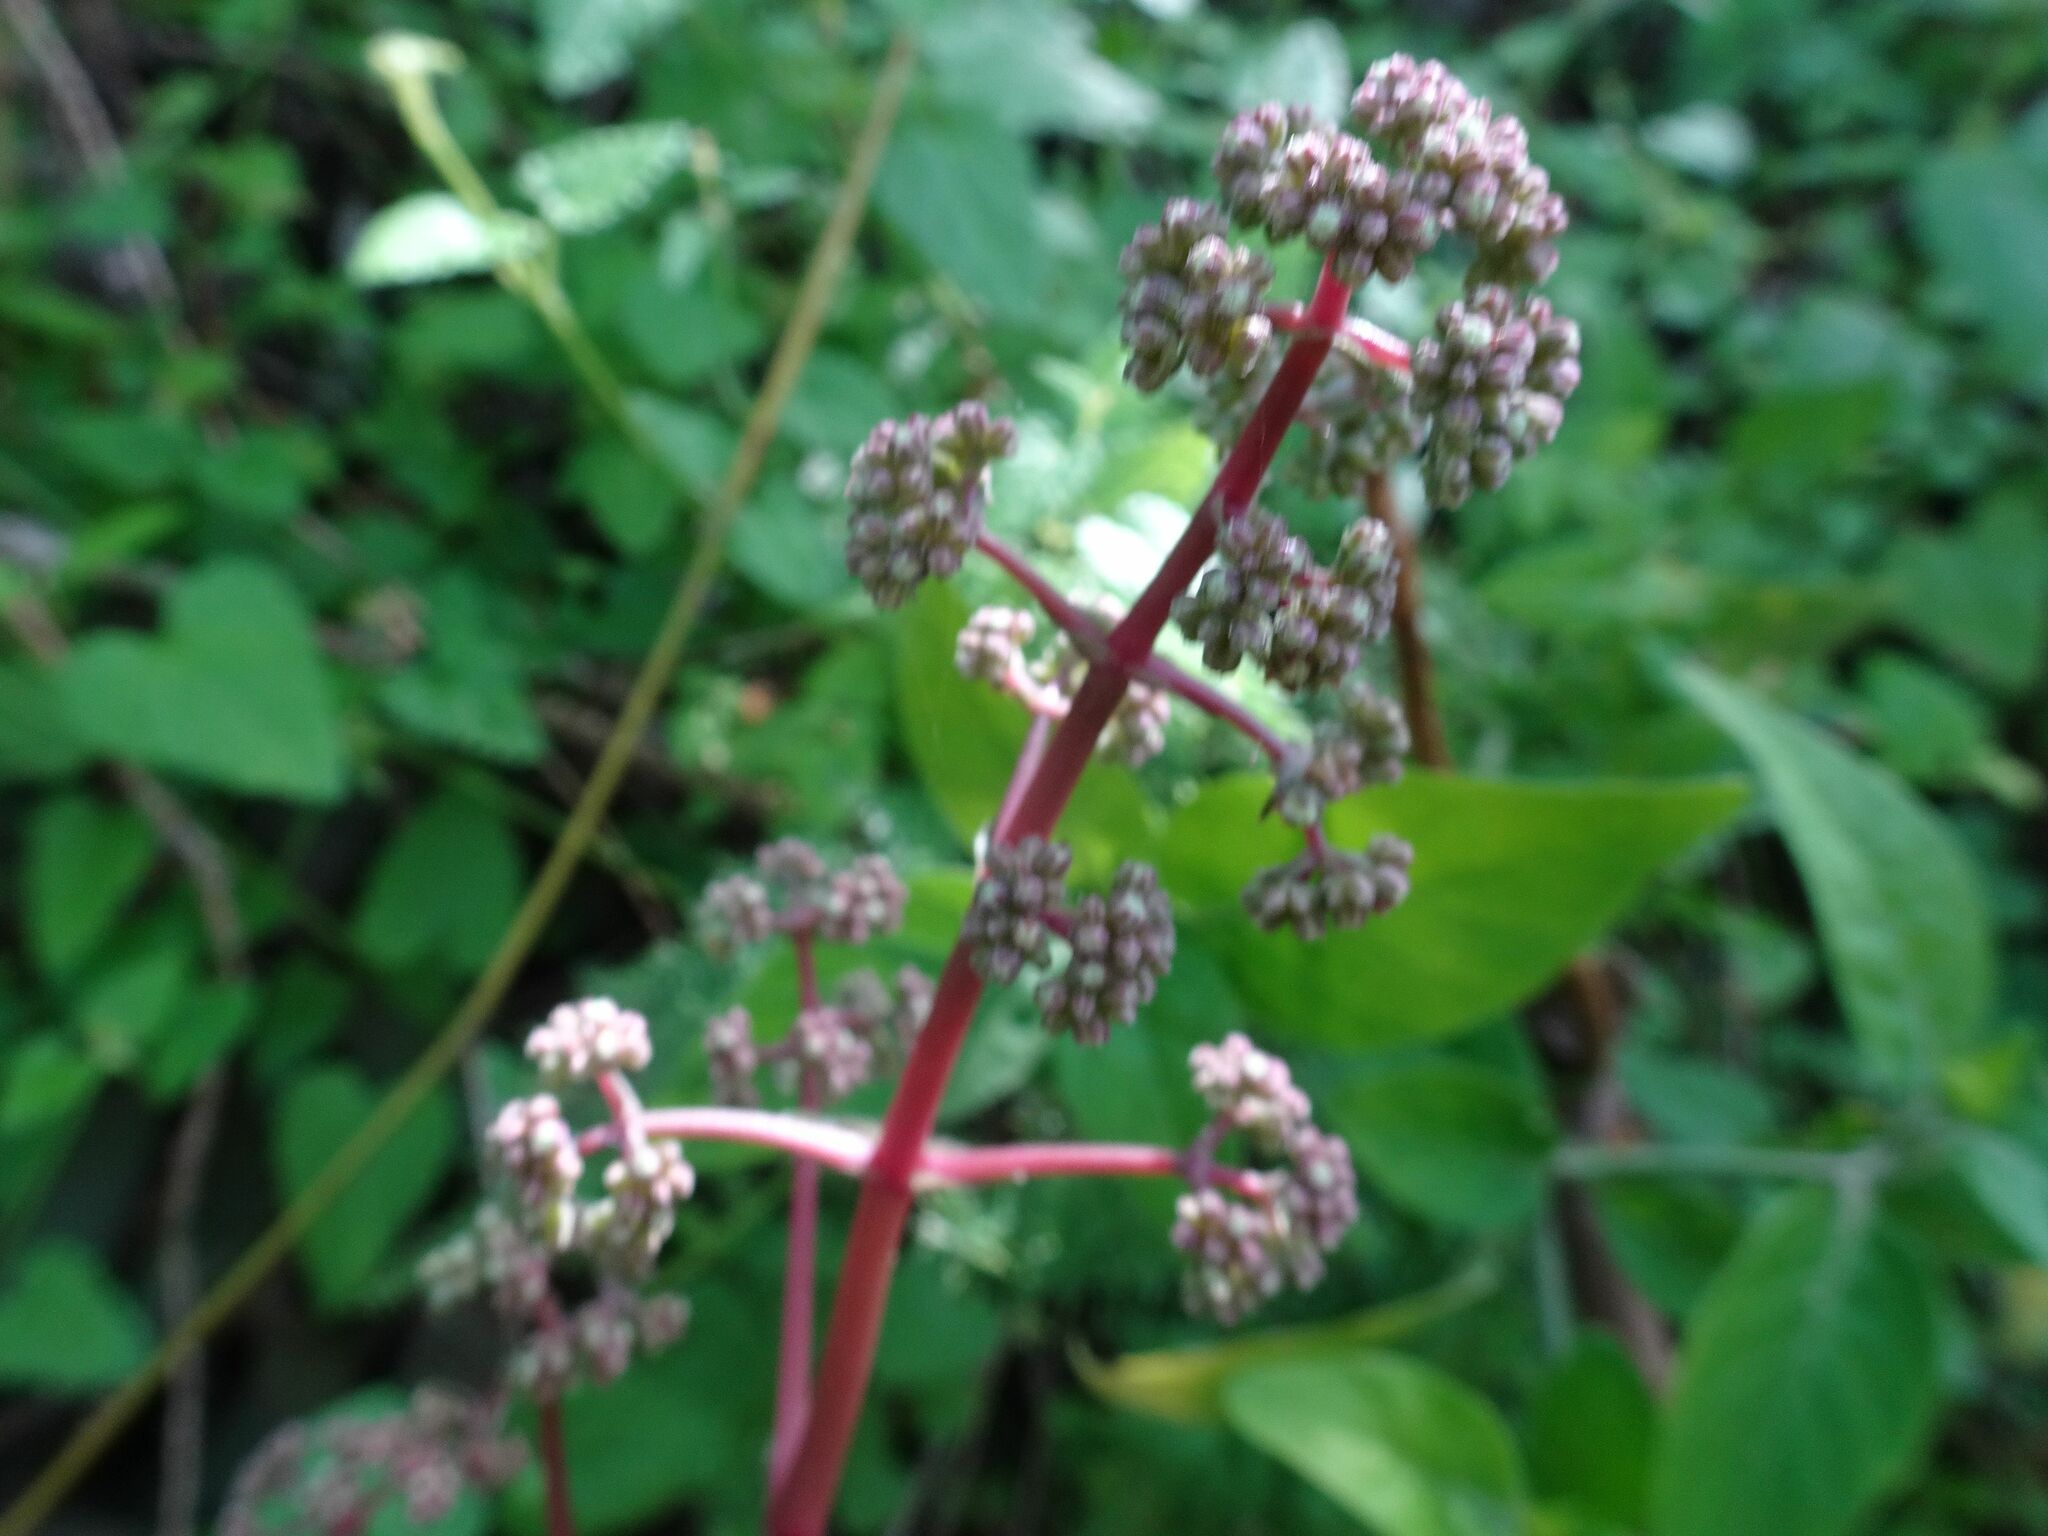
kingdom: Plantae
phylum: Tracheophyta
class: Magnoliopsida
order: Saxifragales
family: Crassulaceae
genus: Crassula
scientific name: Crassula orbicularis
